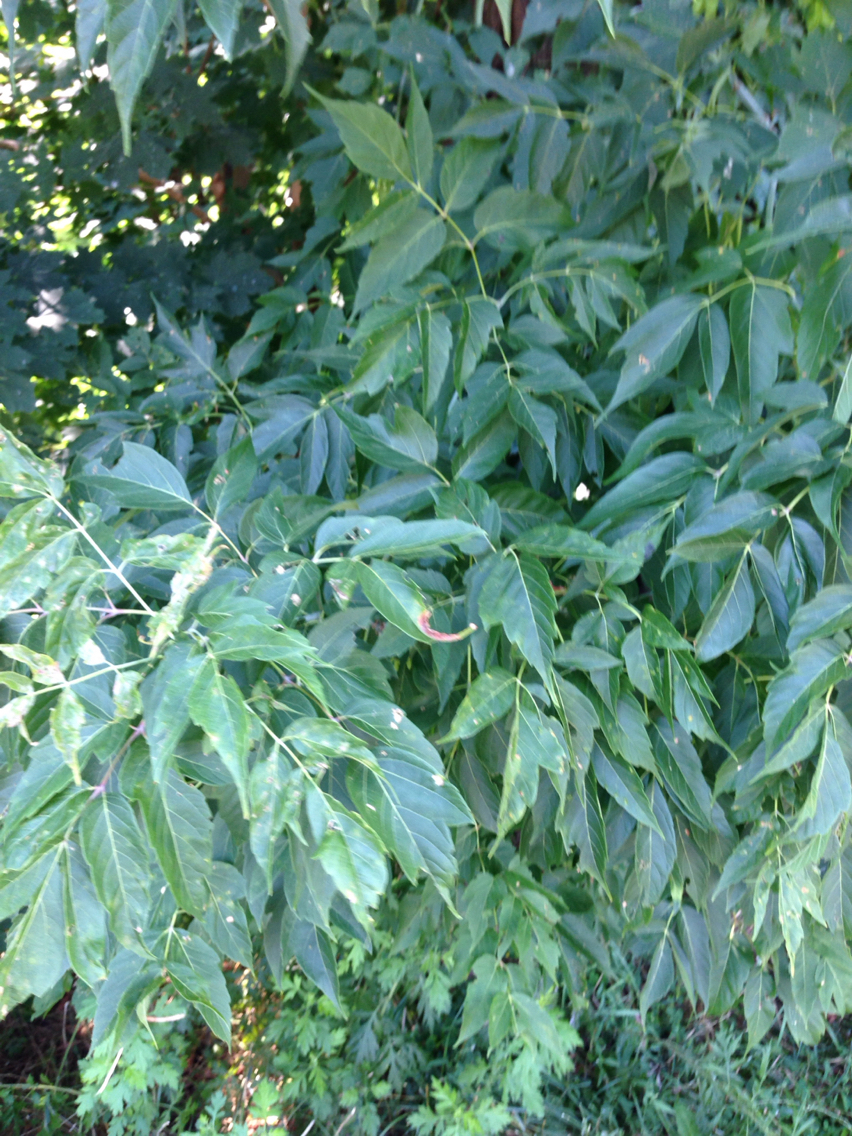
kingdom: Plantae
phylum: Tracheophyta
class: Magnoliopsida
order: Sapindales
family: Sapindaceae
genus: Acer
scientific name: Acer negundo
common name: Ashleaf maple
